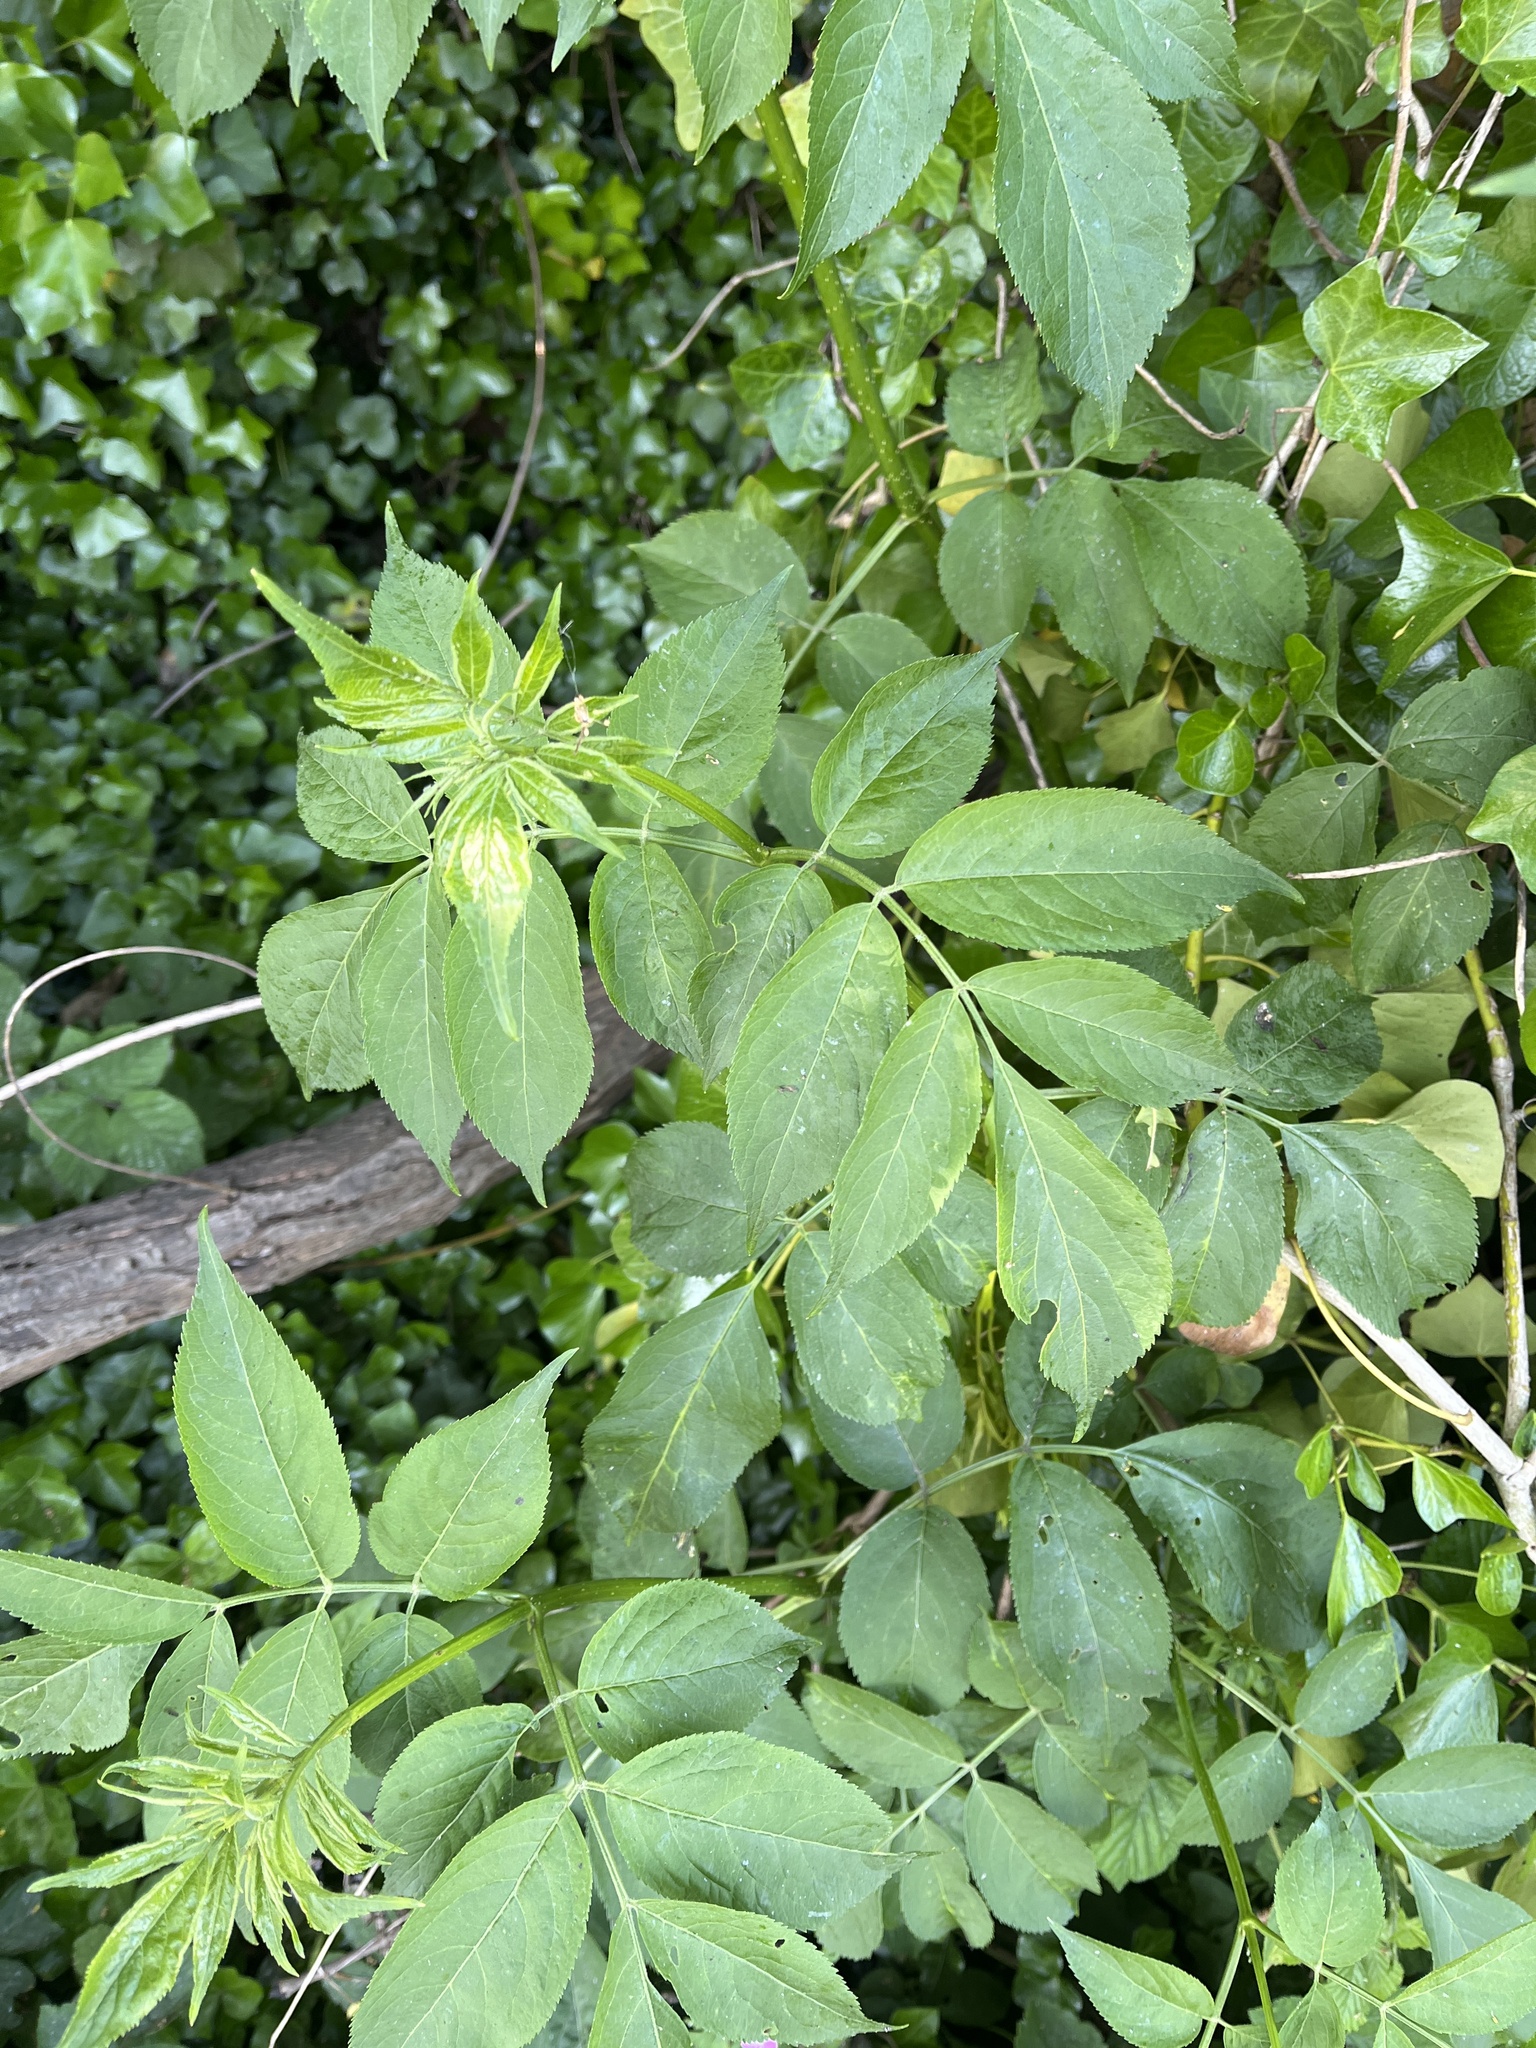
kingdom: Plantae
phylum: Tracheophyta
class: Magnoliopsida
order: Dipsacales
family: Viburnaceae
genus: Sambucus
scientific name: Sambucus nigra
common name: Elder
